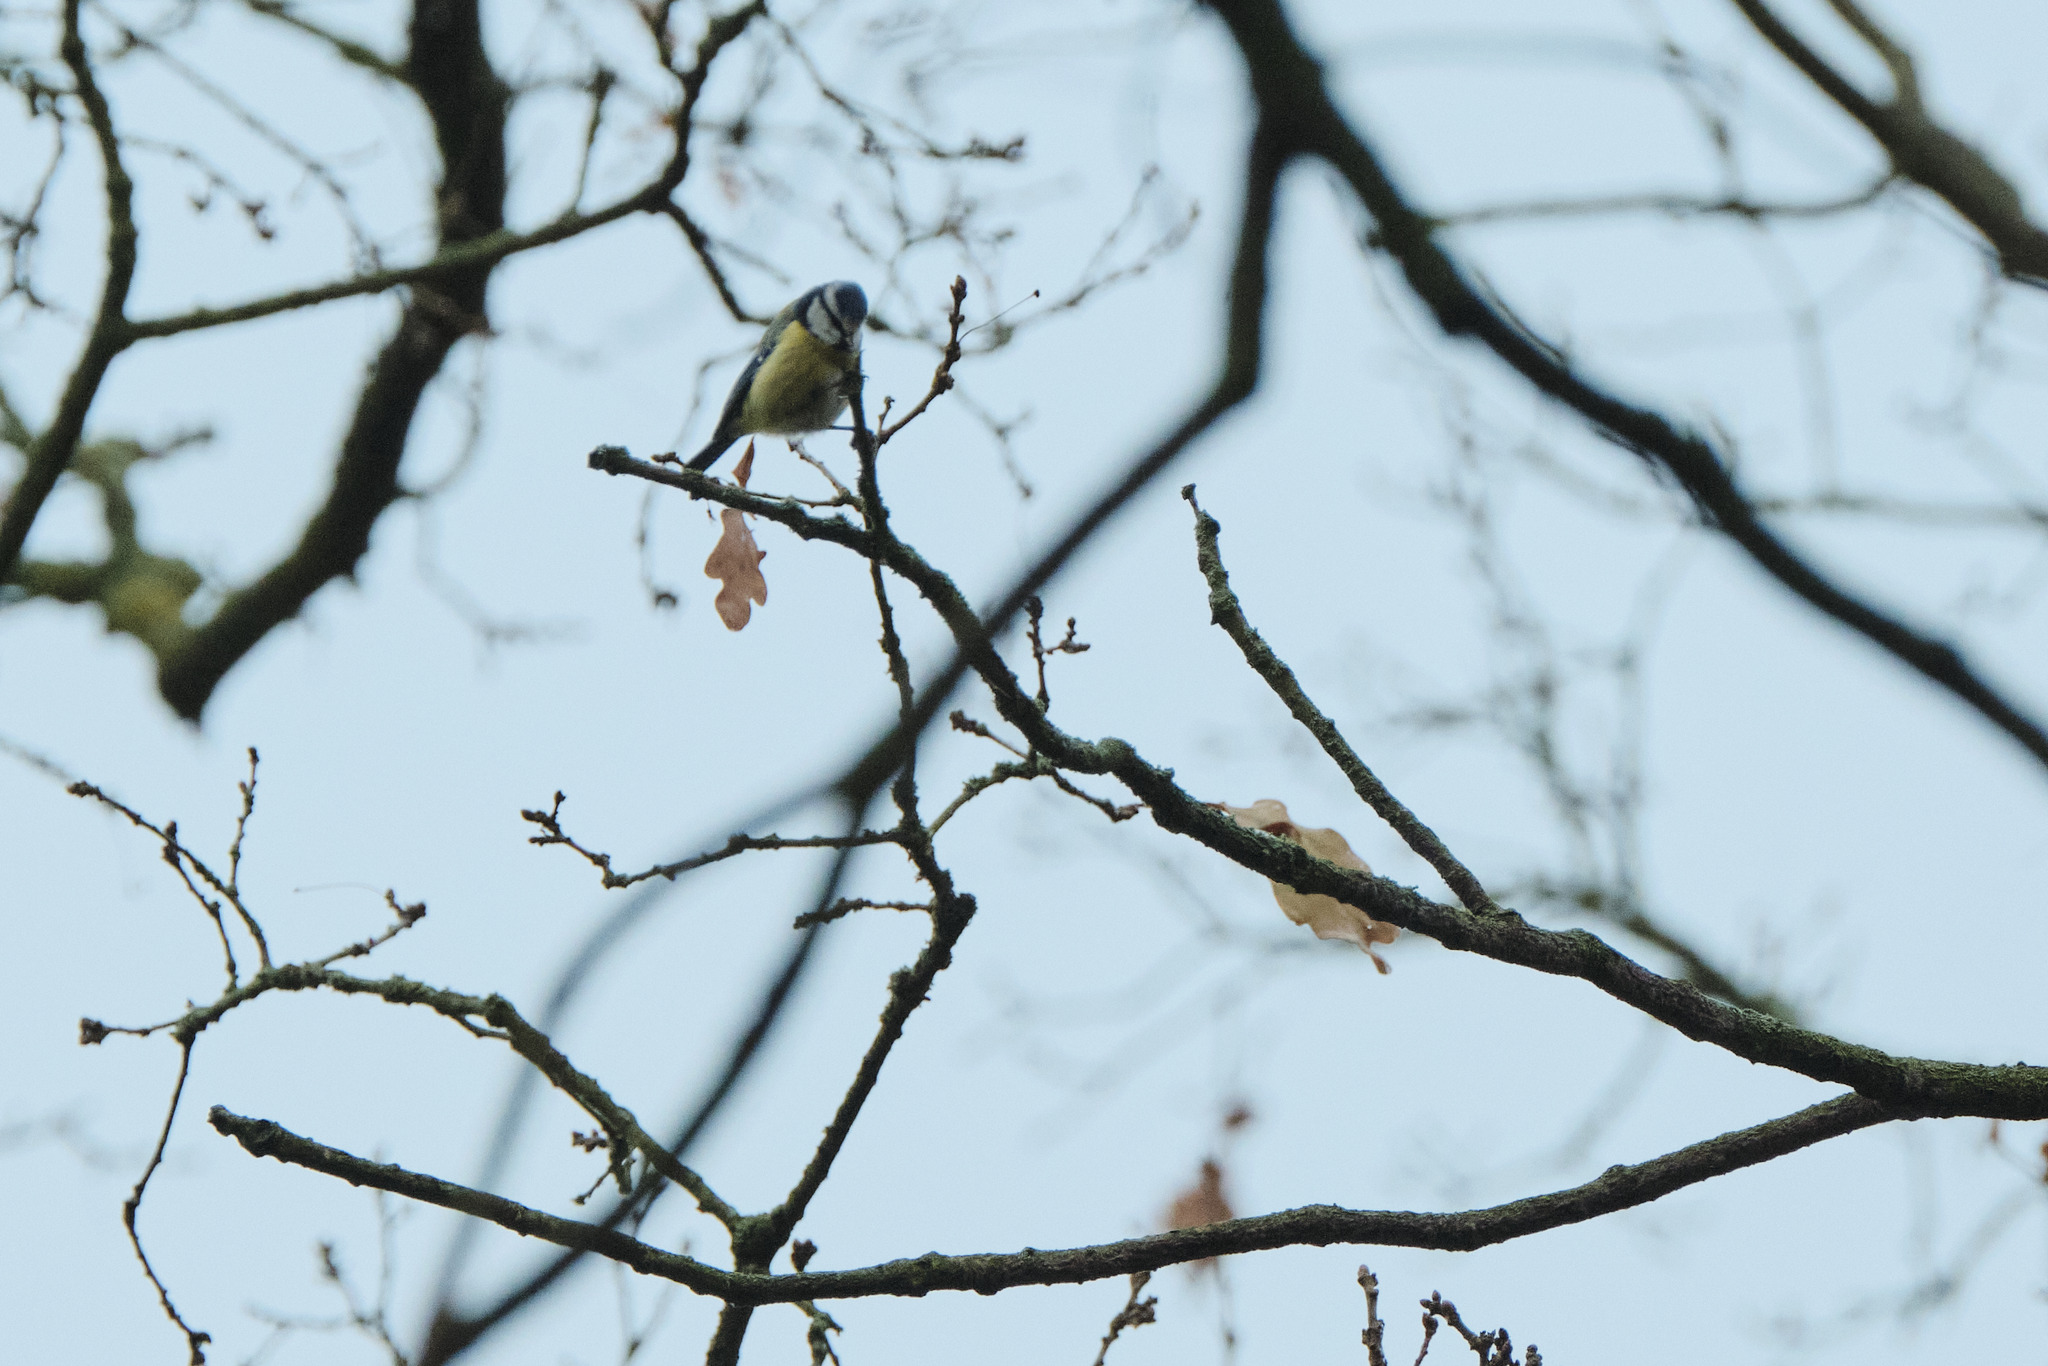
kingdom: Animalia
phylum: Chordata
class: Aves
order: Passeriformes
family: Paridae
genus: Cyanistes
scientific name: Cyanistes caeruleus
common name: Eurasian blue tit
